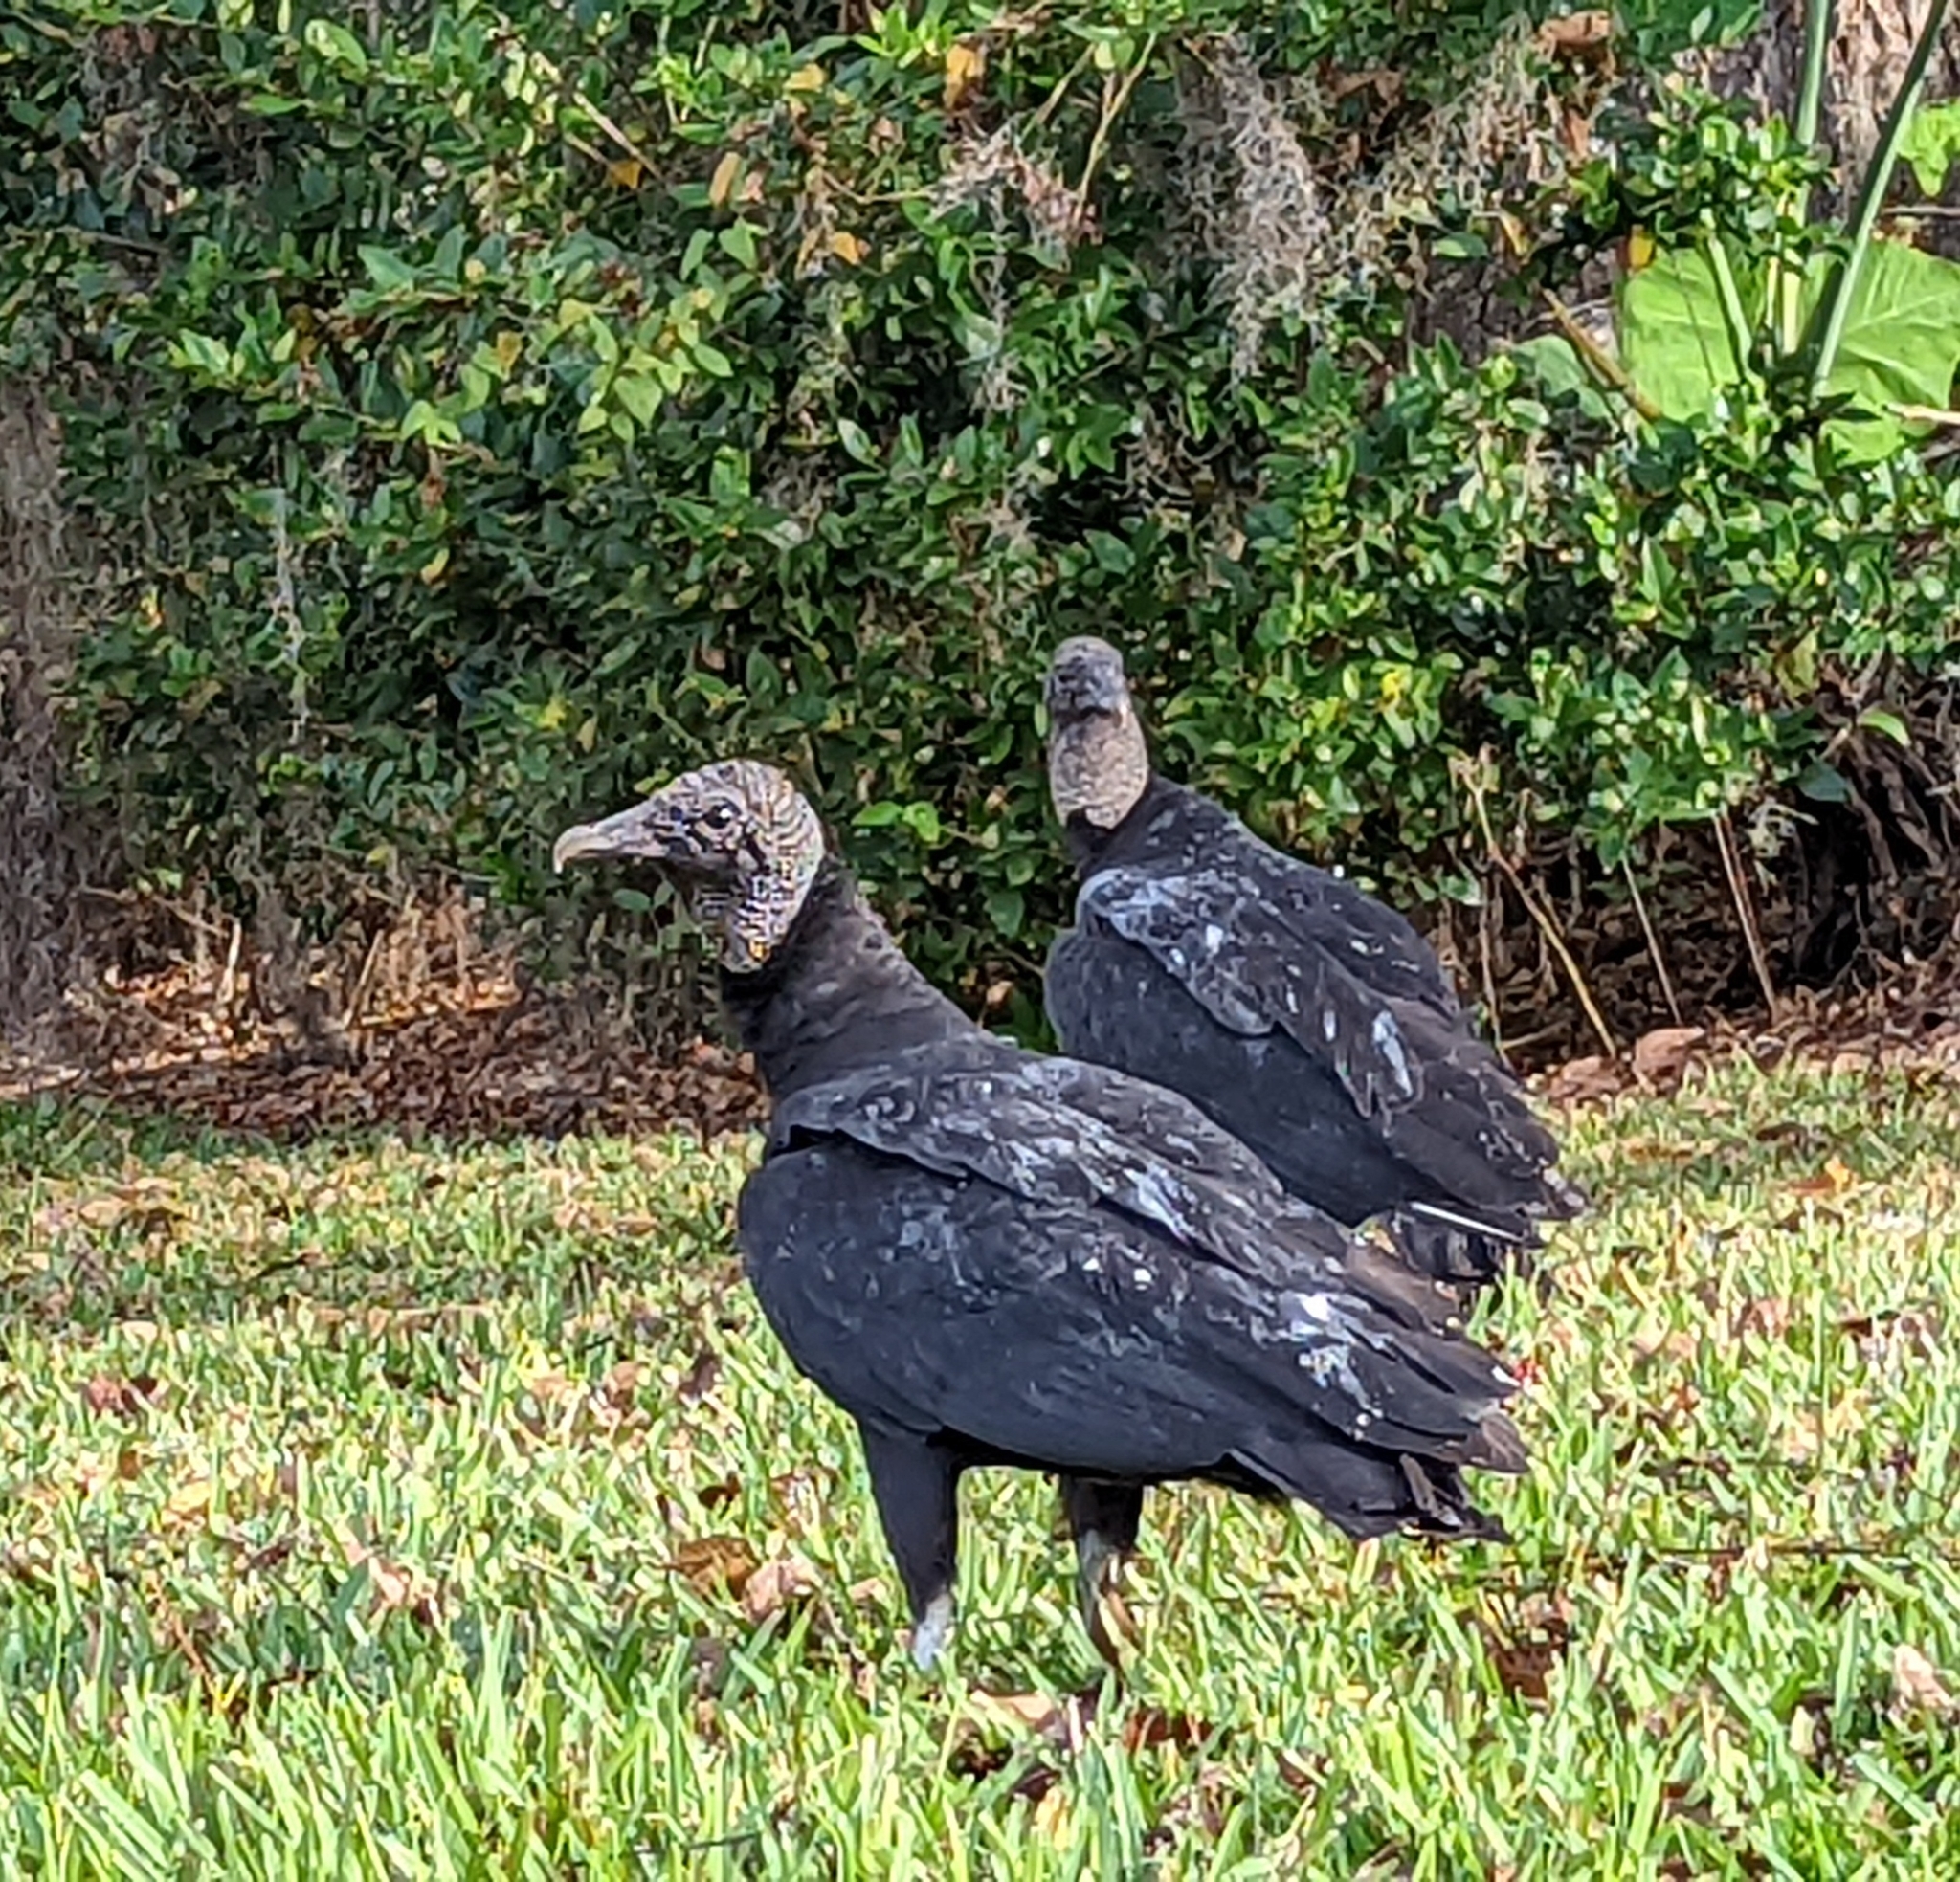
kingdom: Animalia
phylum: Chordata
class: Aves
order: Accipitriformes
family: Cathartidae
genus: Coragyps
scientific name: Coragyps atratus
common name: Black vulture
